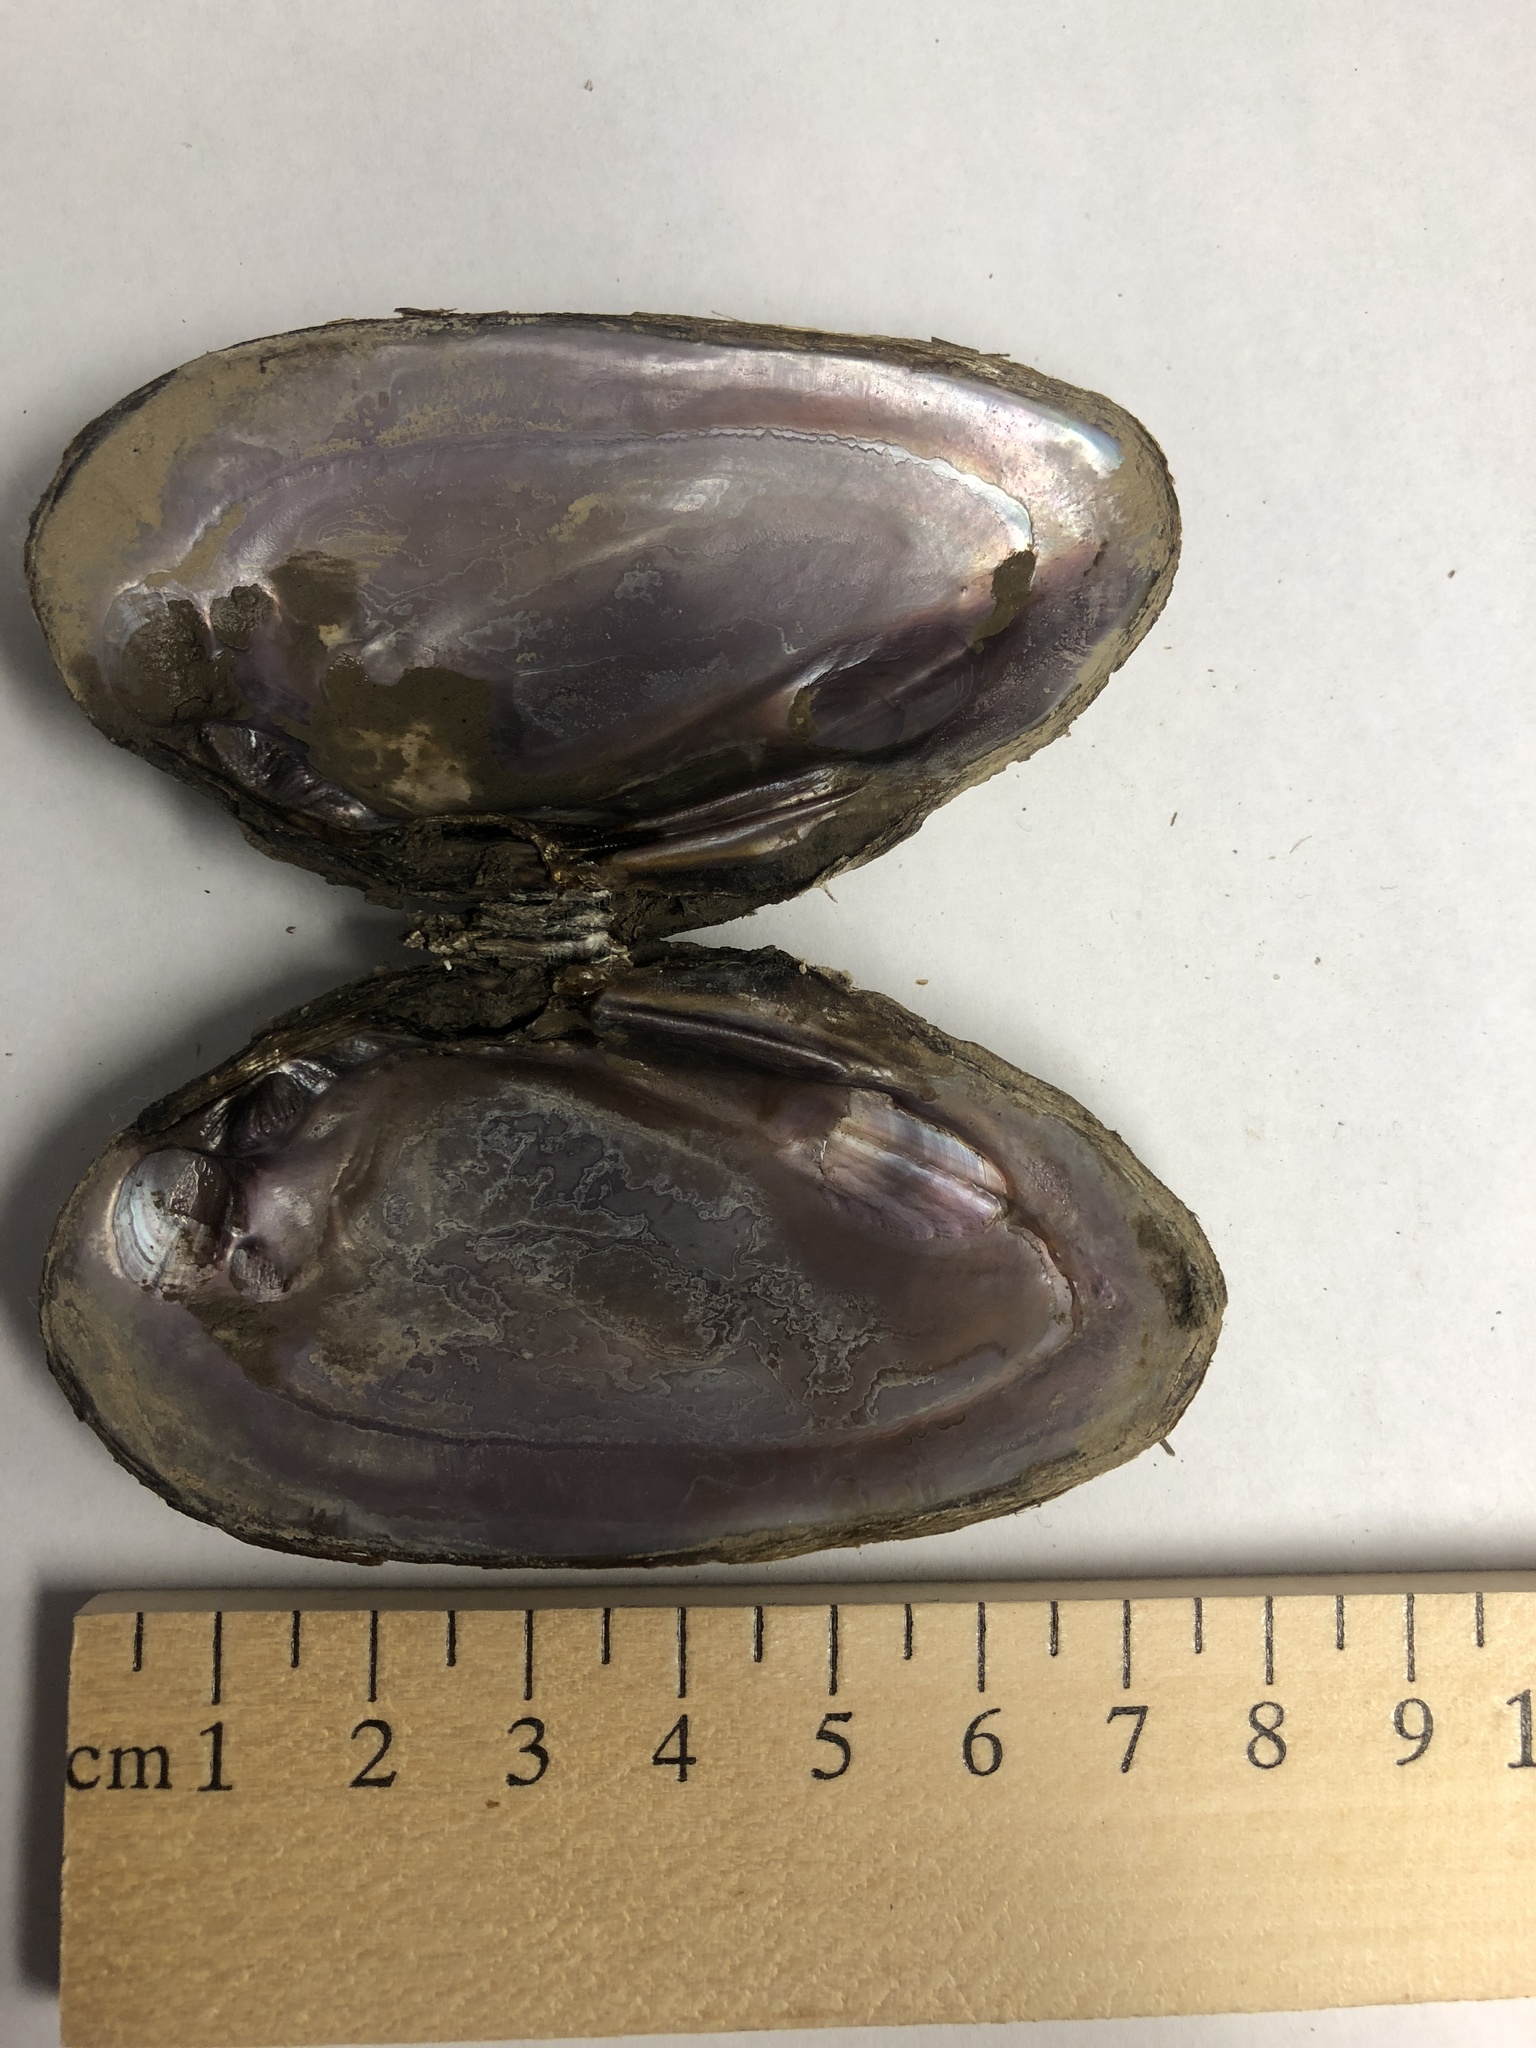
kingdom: Animalia
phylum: Mollusca
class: Bivalvia
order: Unionida
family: Unionidae
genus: Eurynia
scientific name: Eurynia dilatata
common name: Spike
